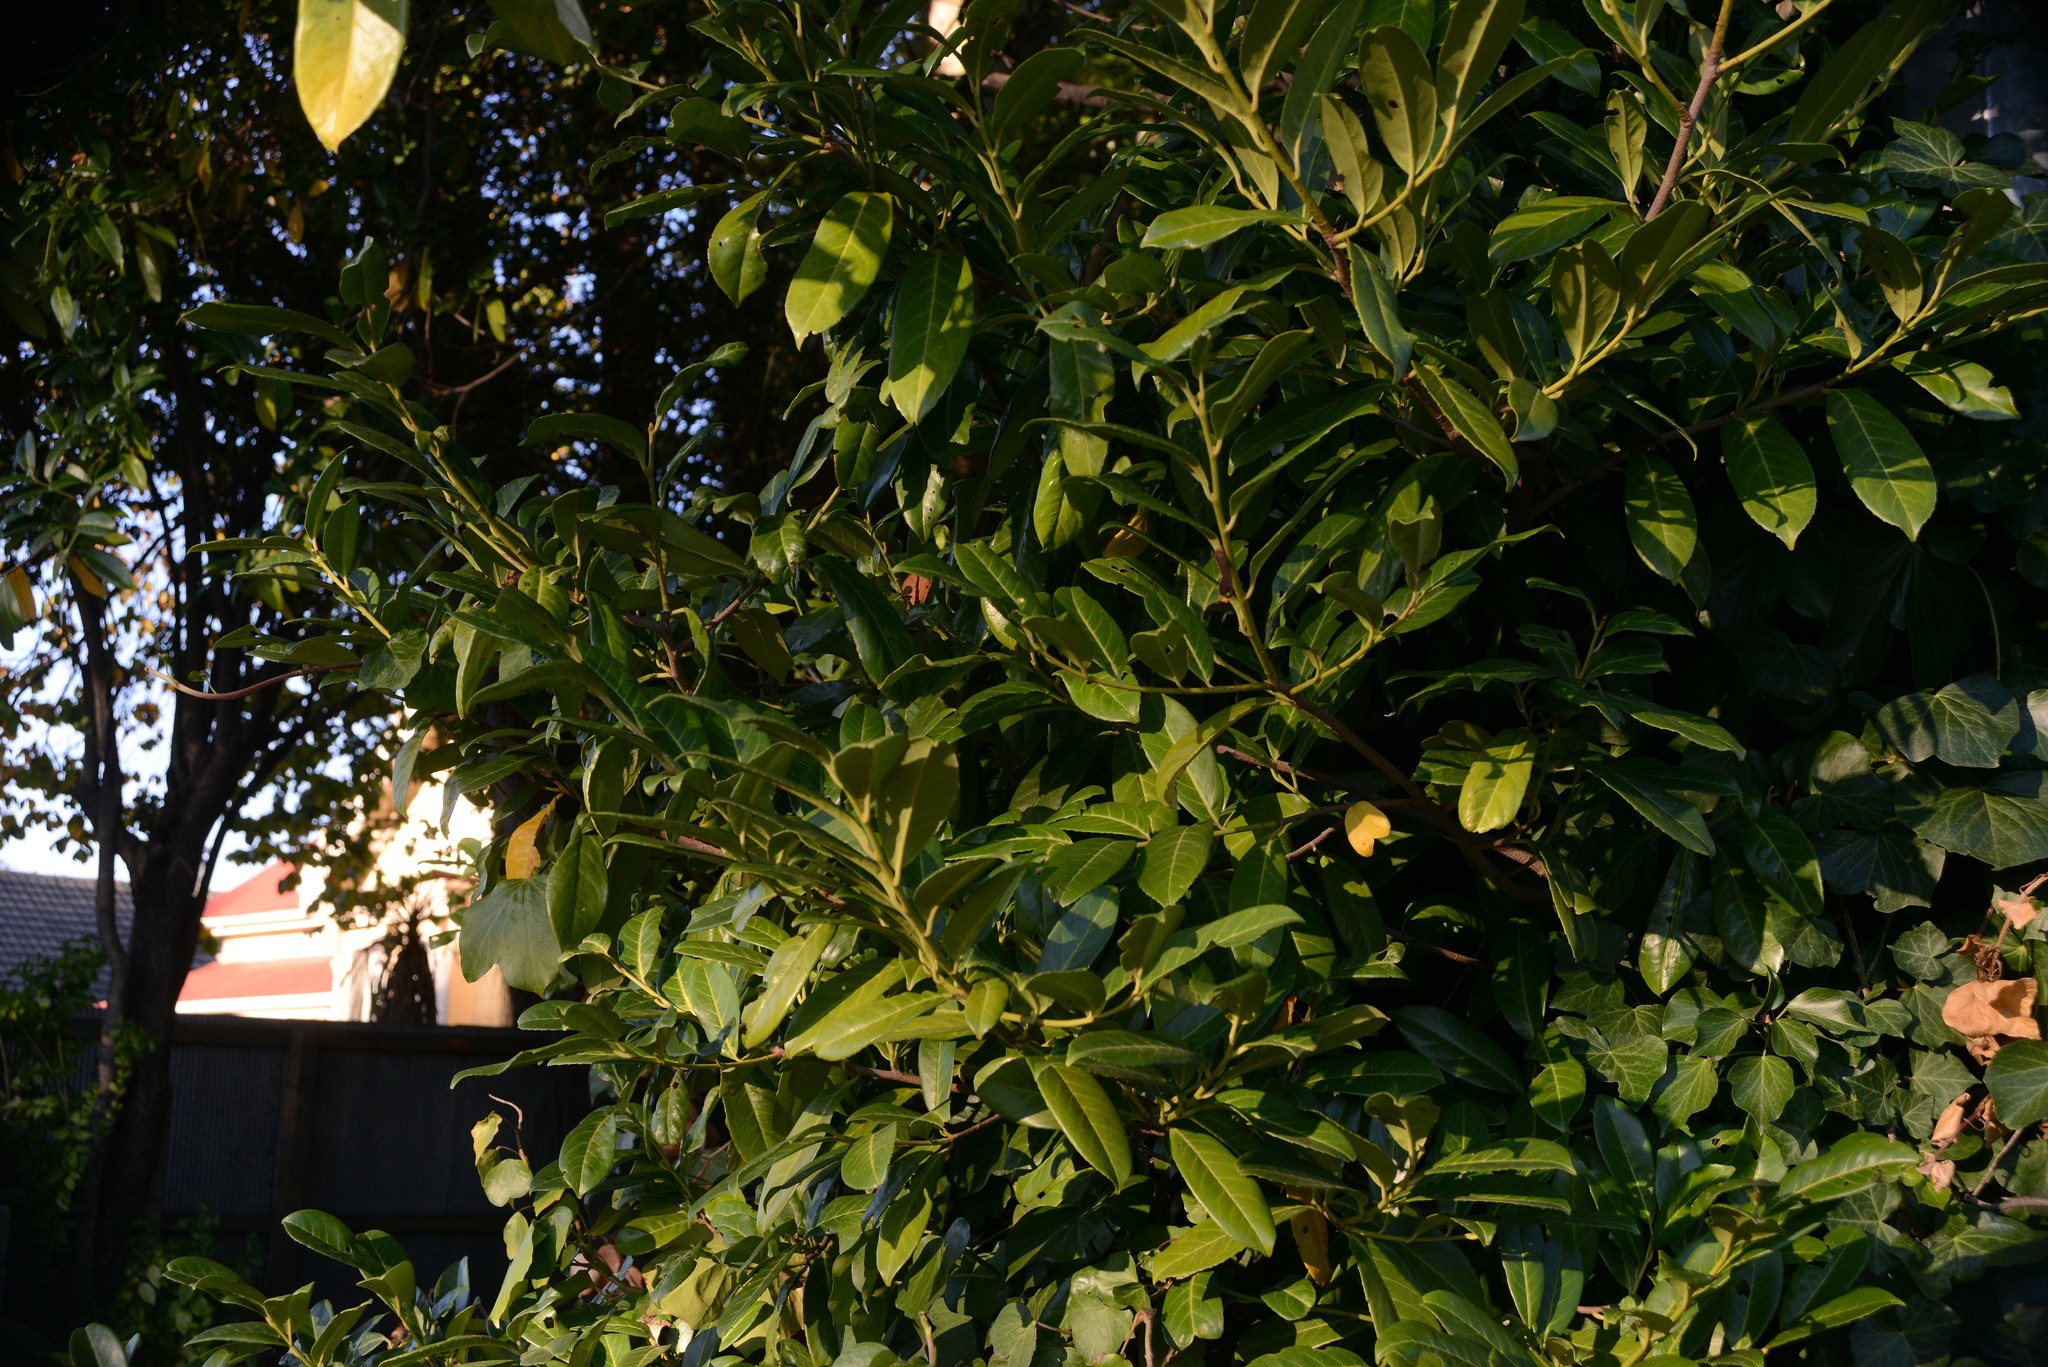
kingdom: Plantae
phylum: Tracheophyta
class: Magnoliopsida
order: Rosales
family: Rosaceae
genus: Prunus
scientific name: Prunus laurocerasus
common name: Cherry laurel
